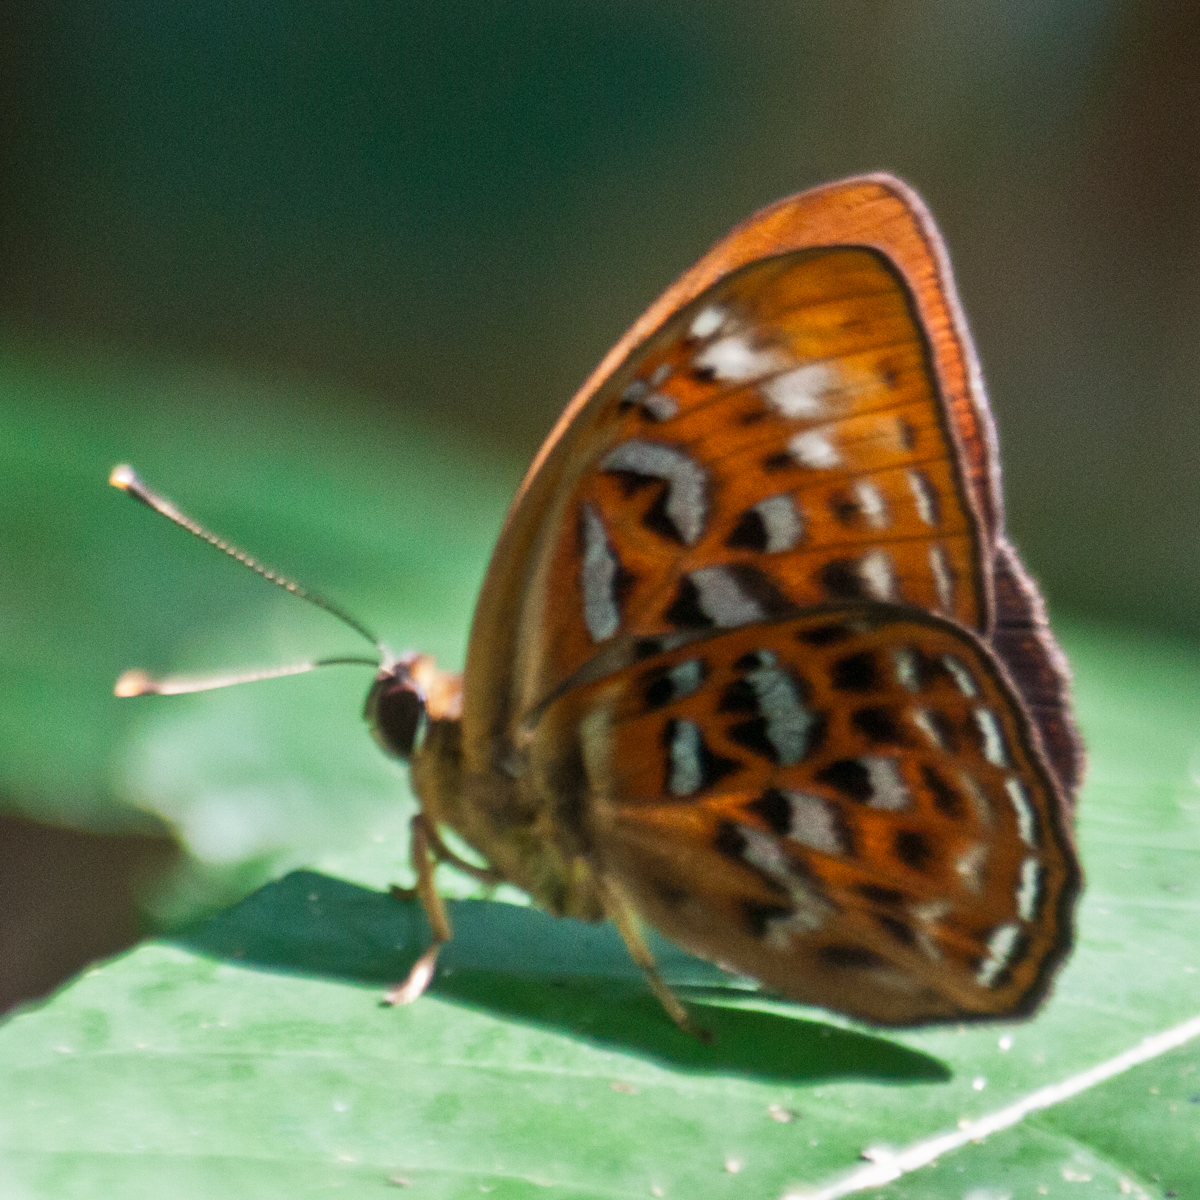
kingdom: Animalia
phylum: Arthropoda
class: Insecta
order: Lepidoptera
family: Erebidae
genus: Dysschema
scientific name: Dysschema
